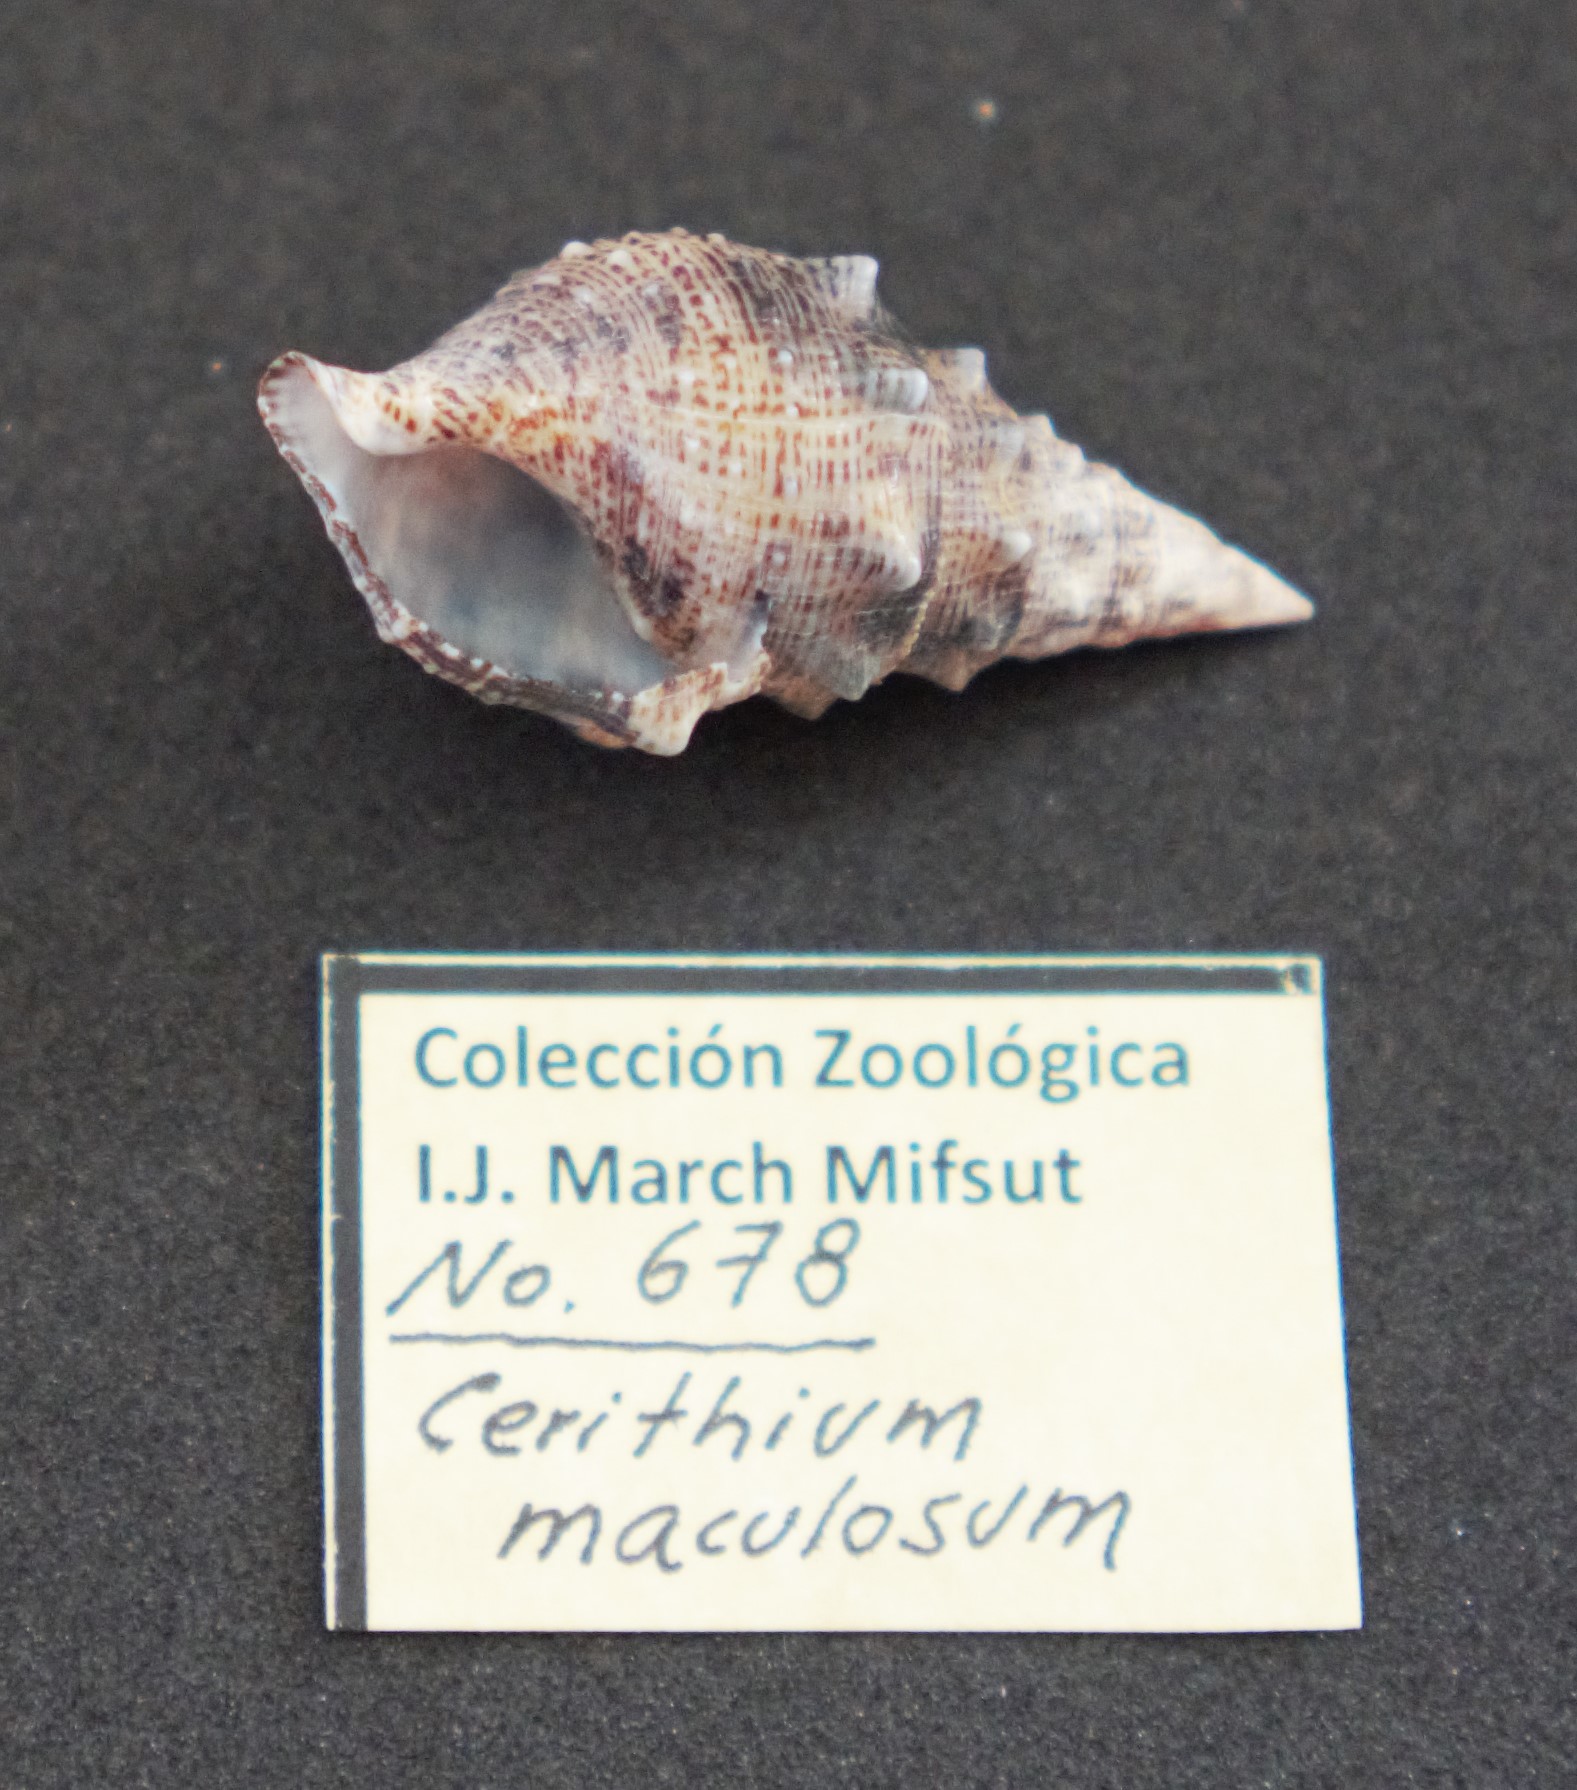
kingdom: Animalia
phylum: Mollusca
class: Gastropoda
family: Cerithiidae
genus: Cerithium
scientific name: Cerithium maculosum
